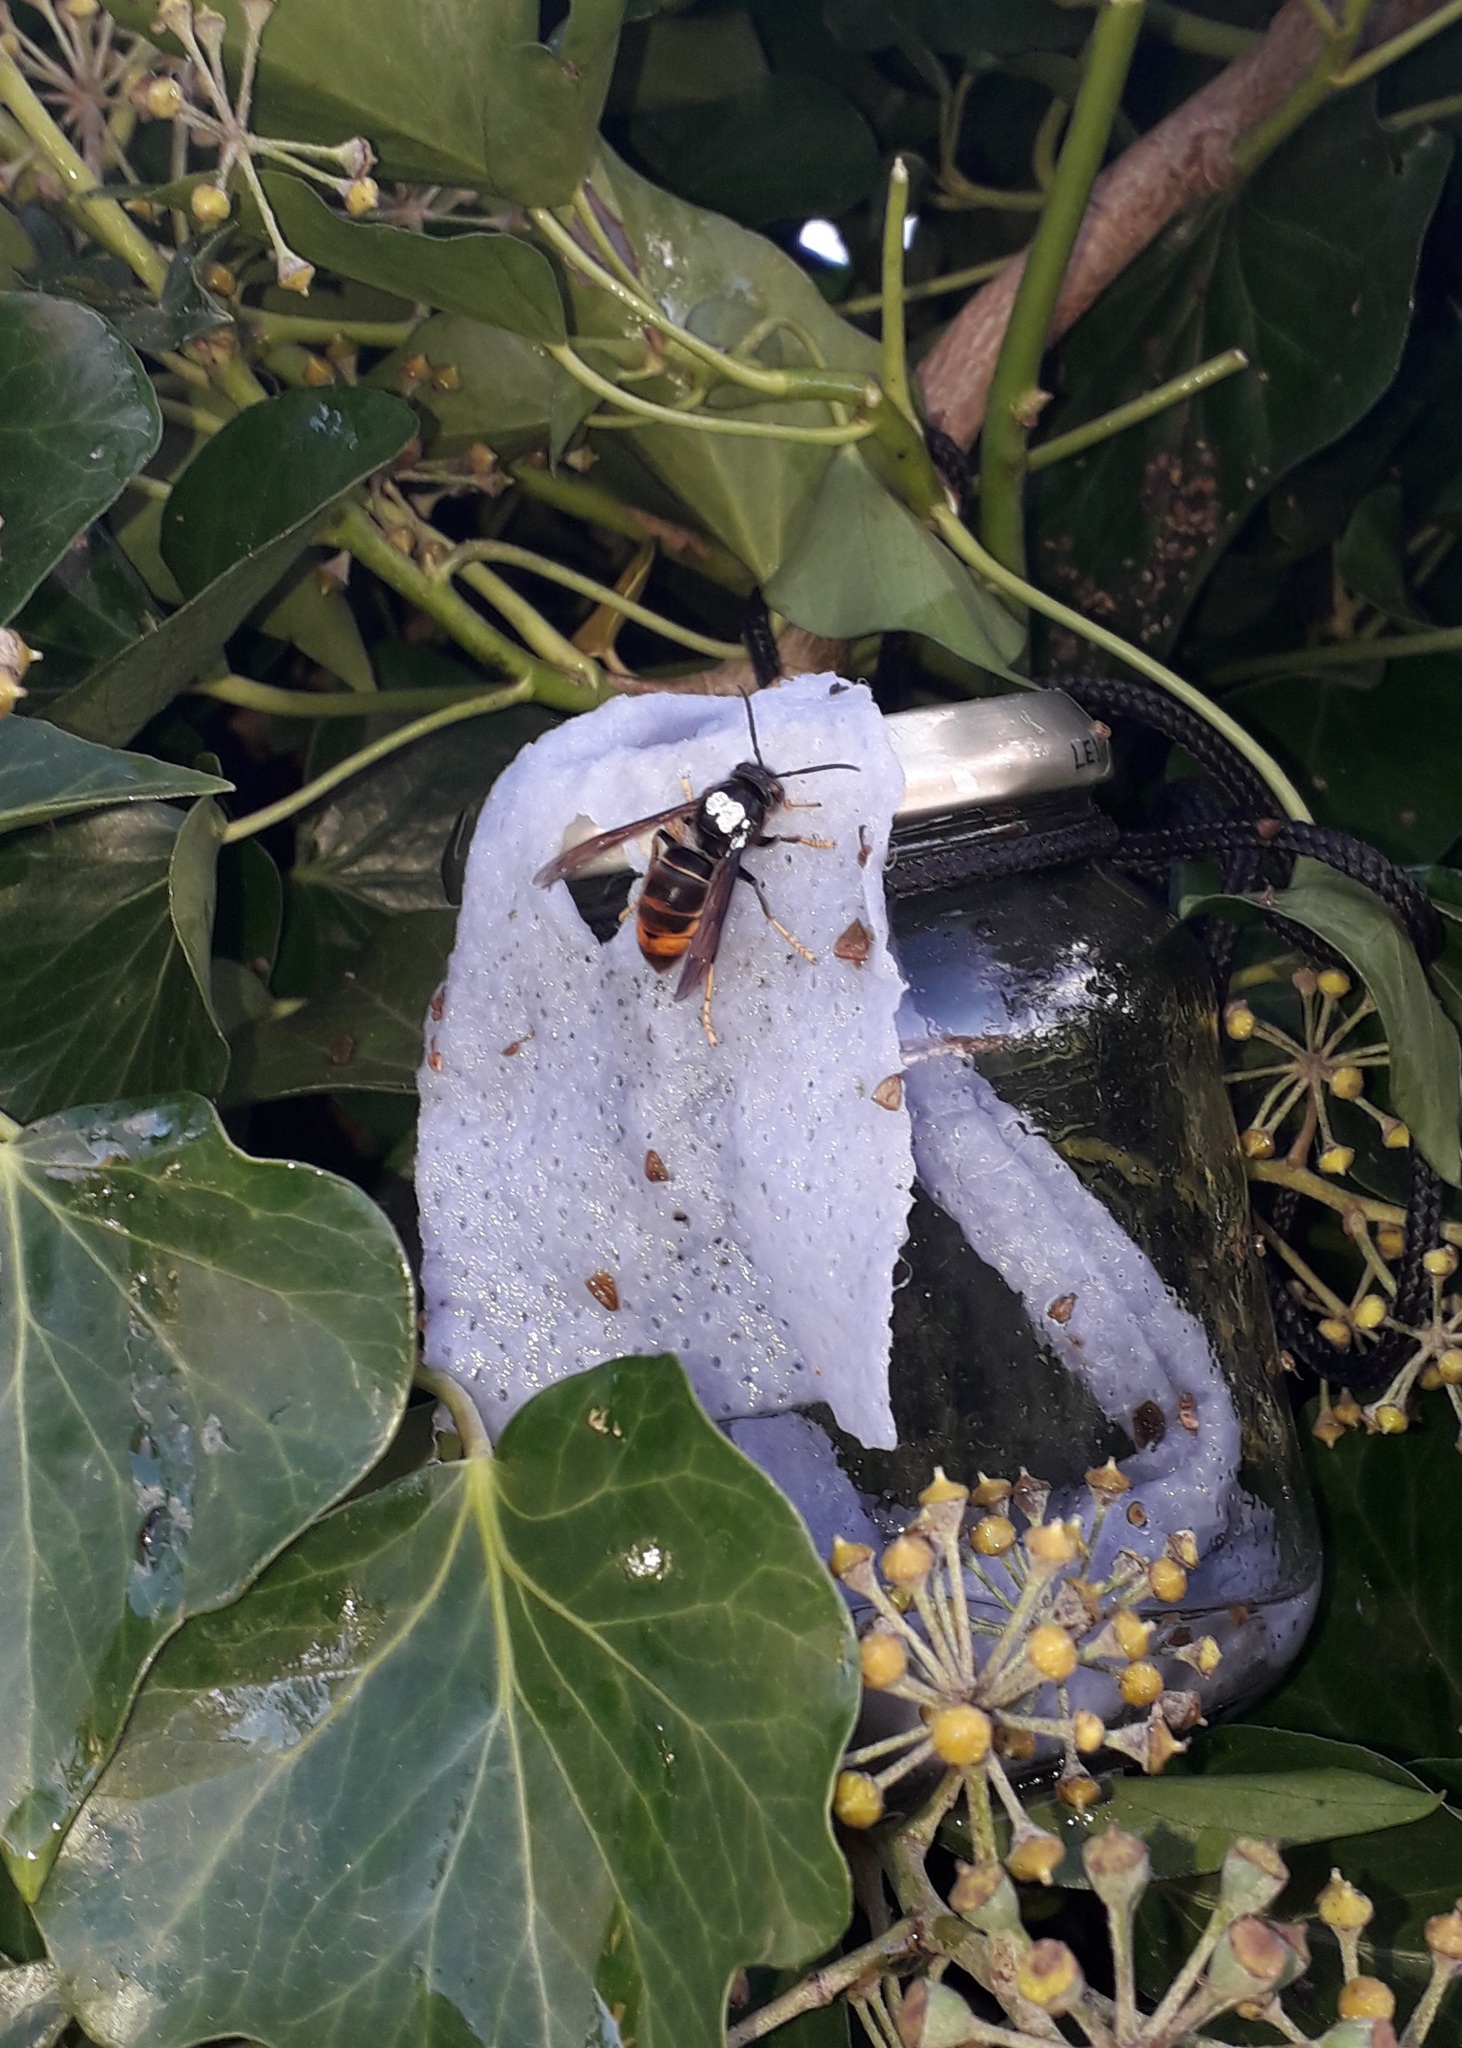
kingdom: Animalia
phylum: Arthropoda
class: Insecta
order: Hymenoptera
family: Vespidae
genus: Vespa
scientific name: Vespa velutina
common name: Asian hornet
